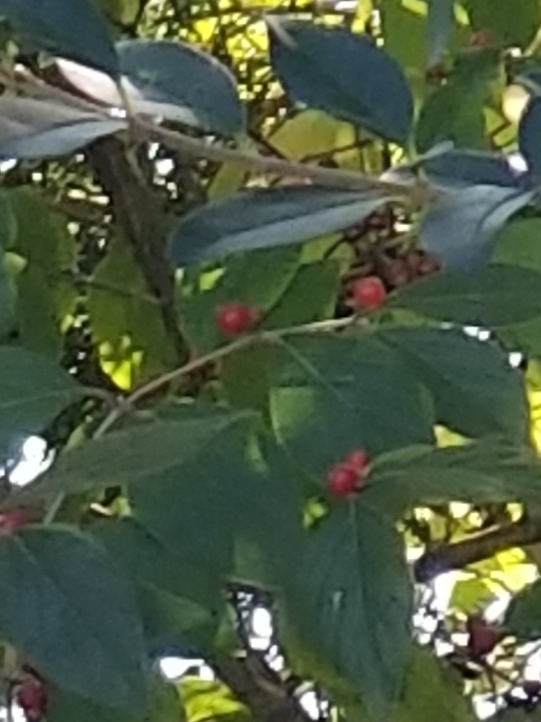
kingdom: Plantae
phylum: Tracheophyta
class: Magnoliopsida
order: Dipsacales
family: Caprifoliaceae
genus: Lonicera
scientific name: Lonicera maackii
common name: Amur honeysuckle
